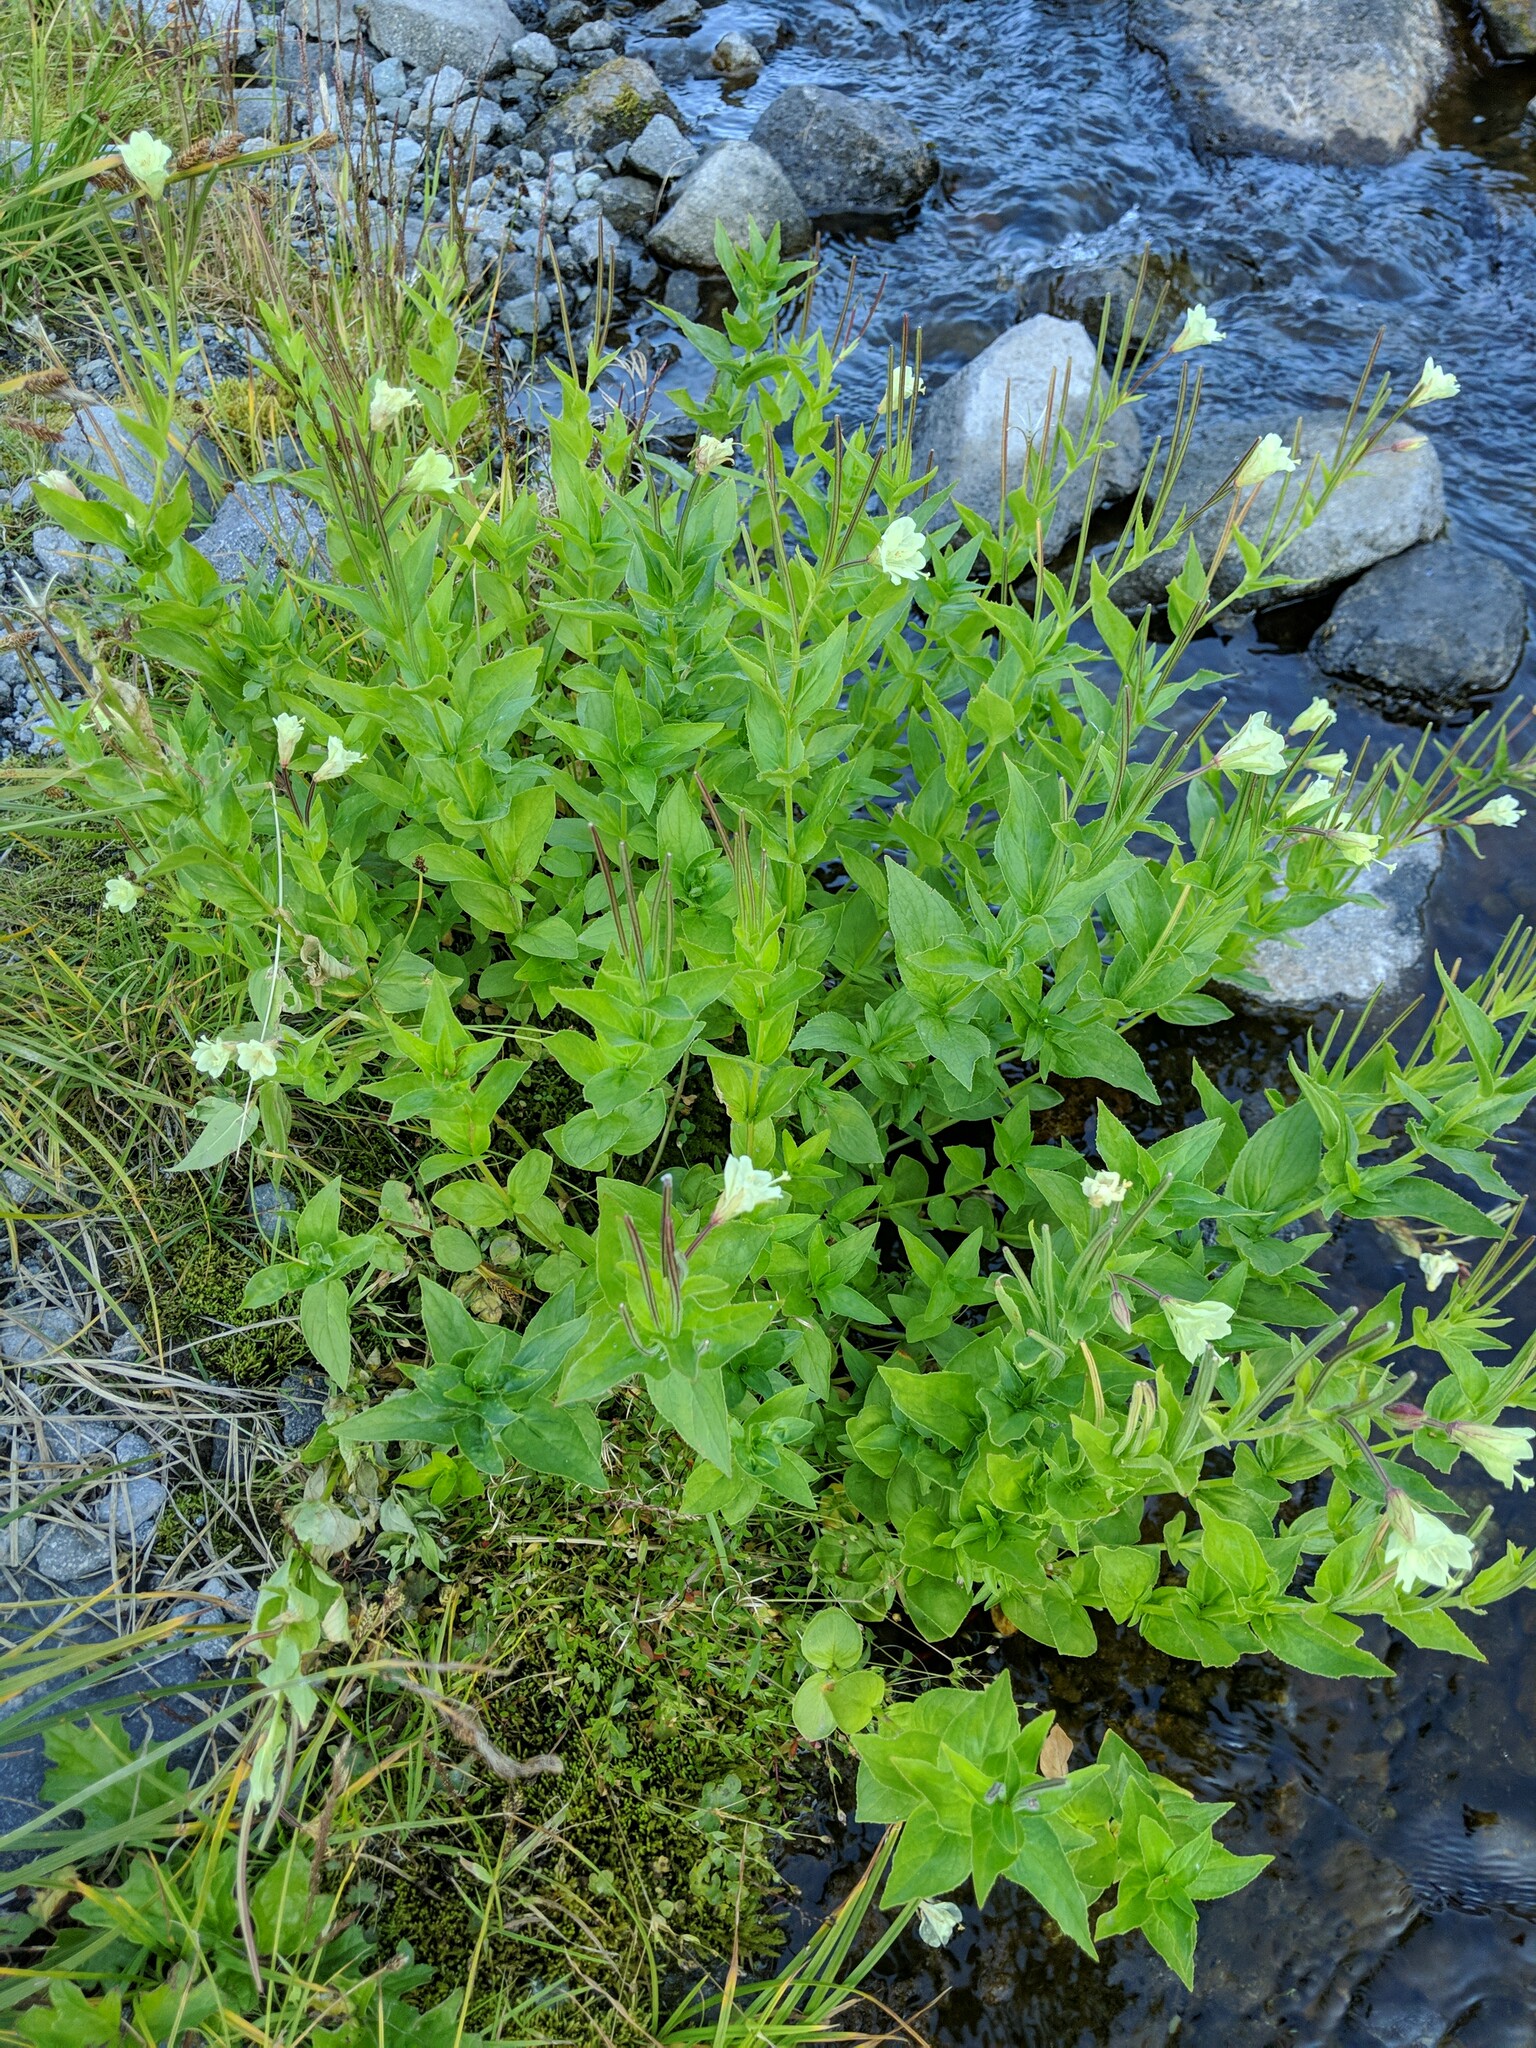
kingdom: Plantae
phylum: Tracheophyta
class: Magnoliopsida
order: Myrtales
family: Onagraceae
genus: Epilobium
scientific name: Epilobium luteum
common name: Yellow willowherb
